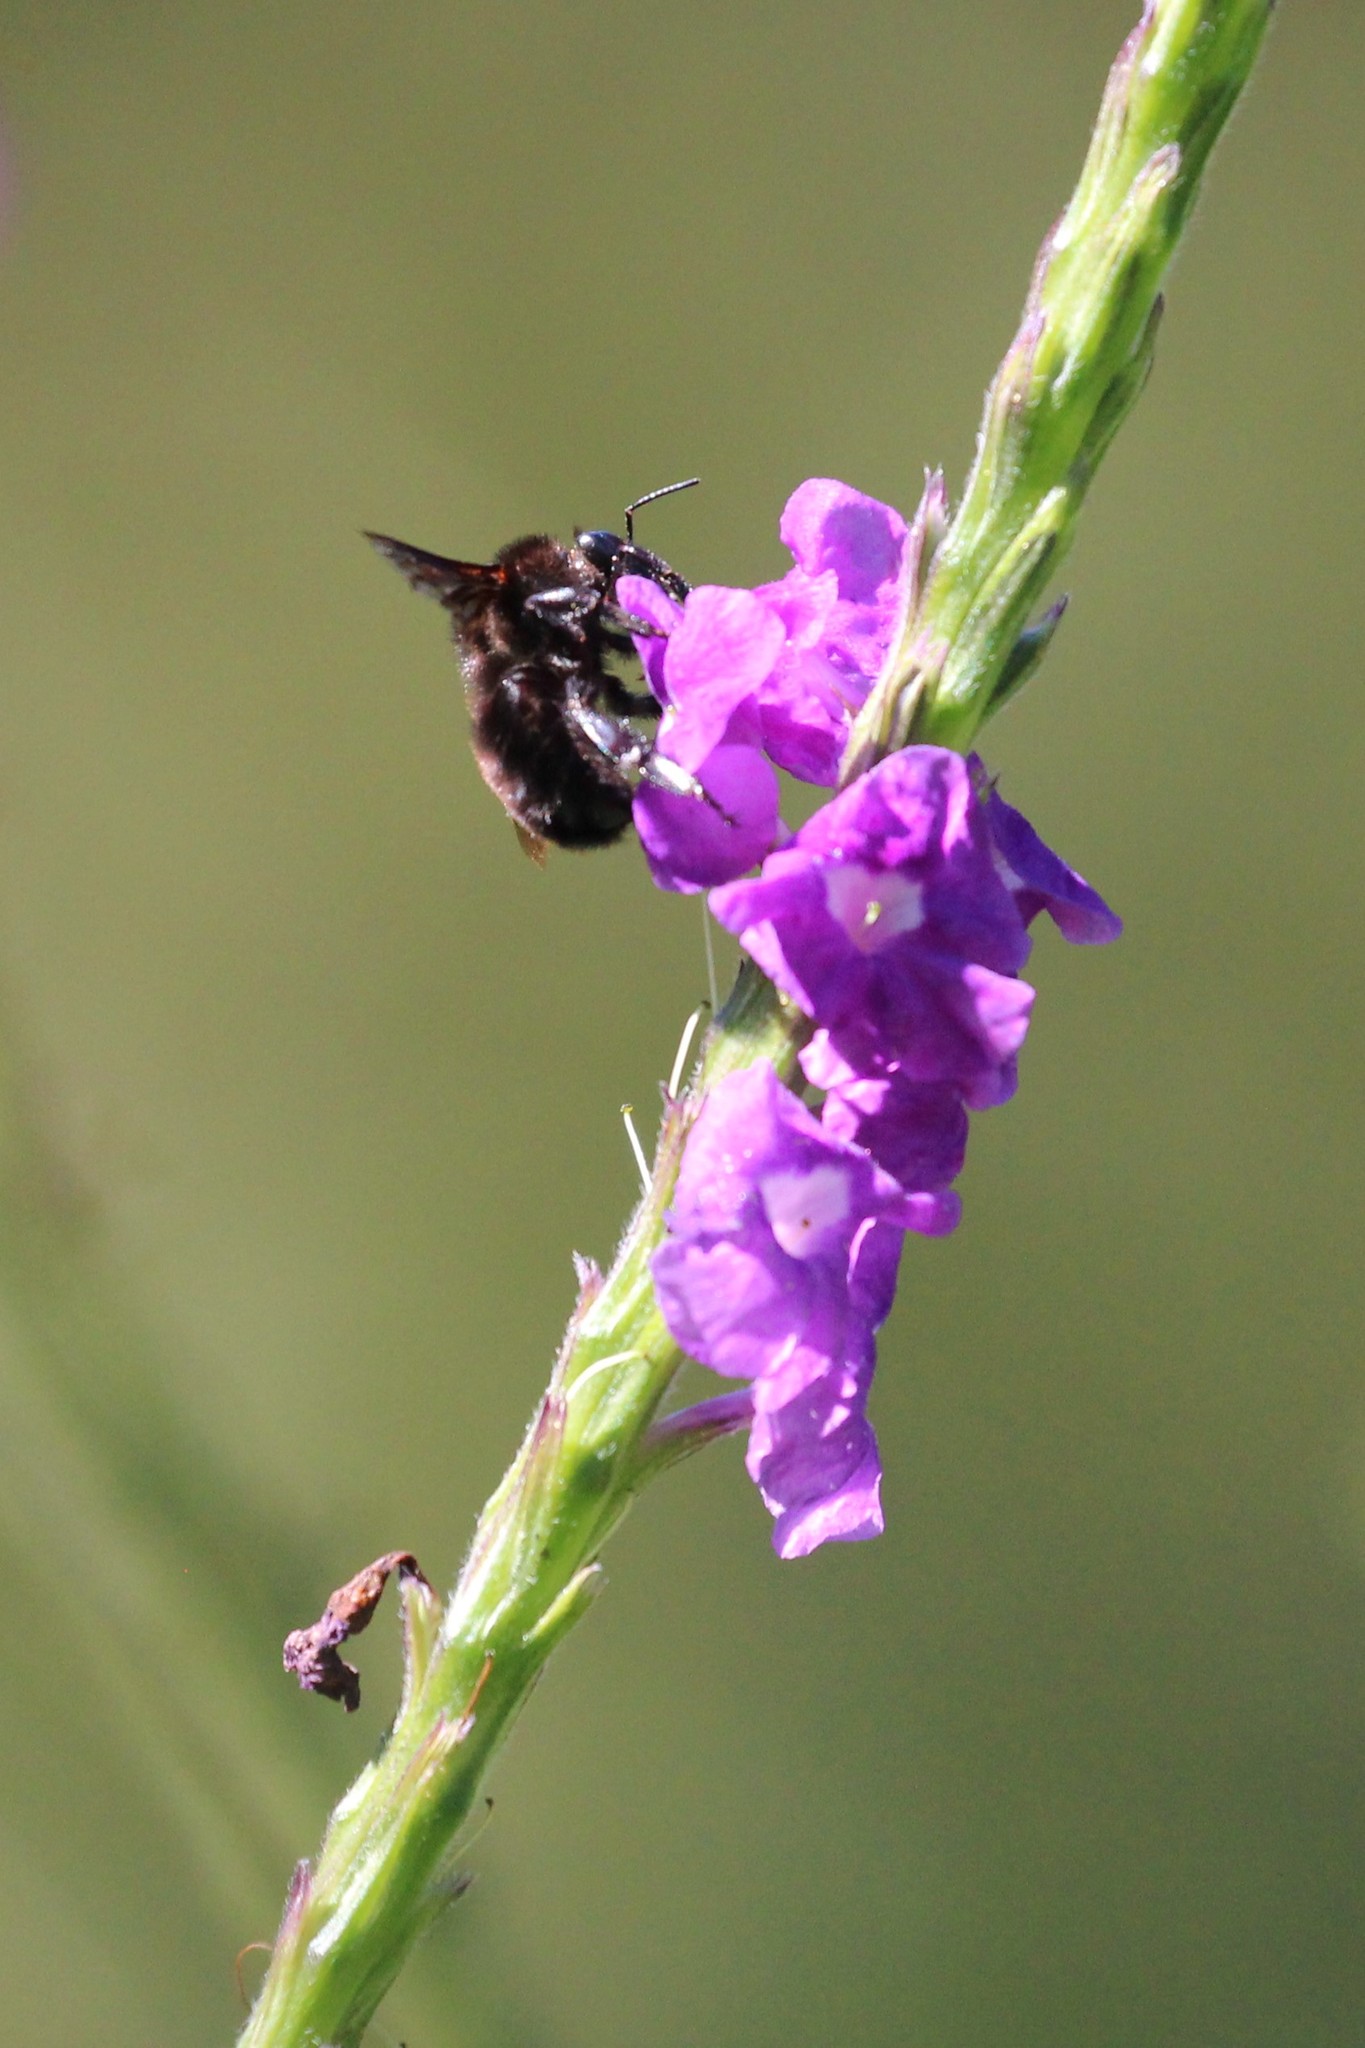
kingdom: Animalia
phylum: Arthropoda
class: Insecta
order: Hymenoptera
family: Apidae
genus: Bombus
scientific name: Bombus pullatus
